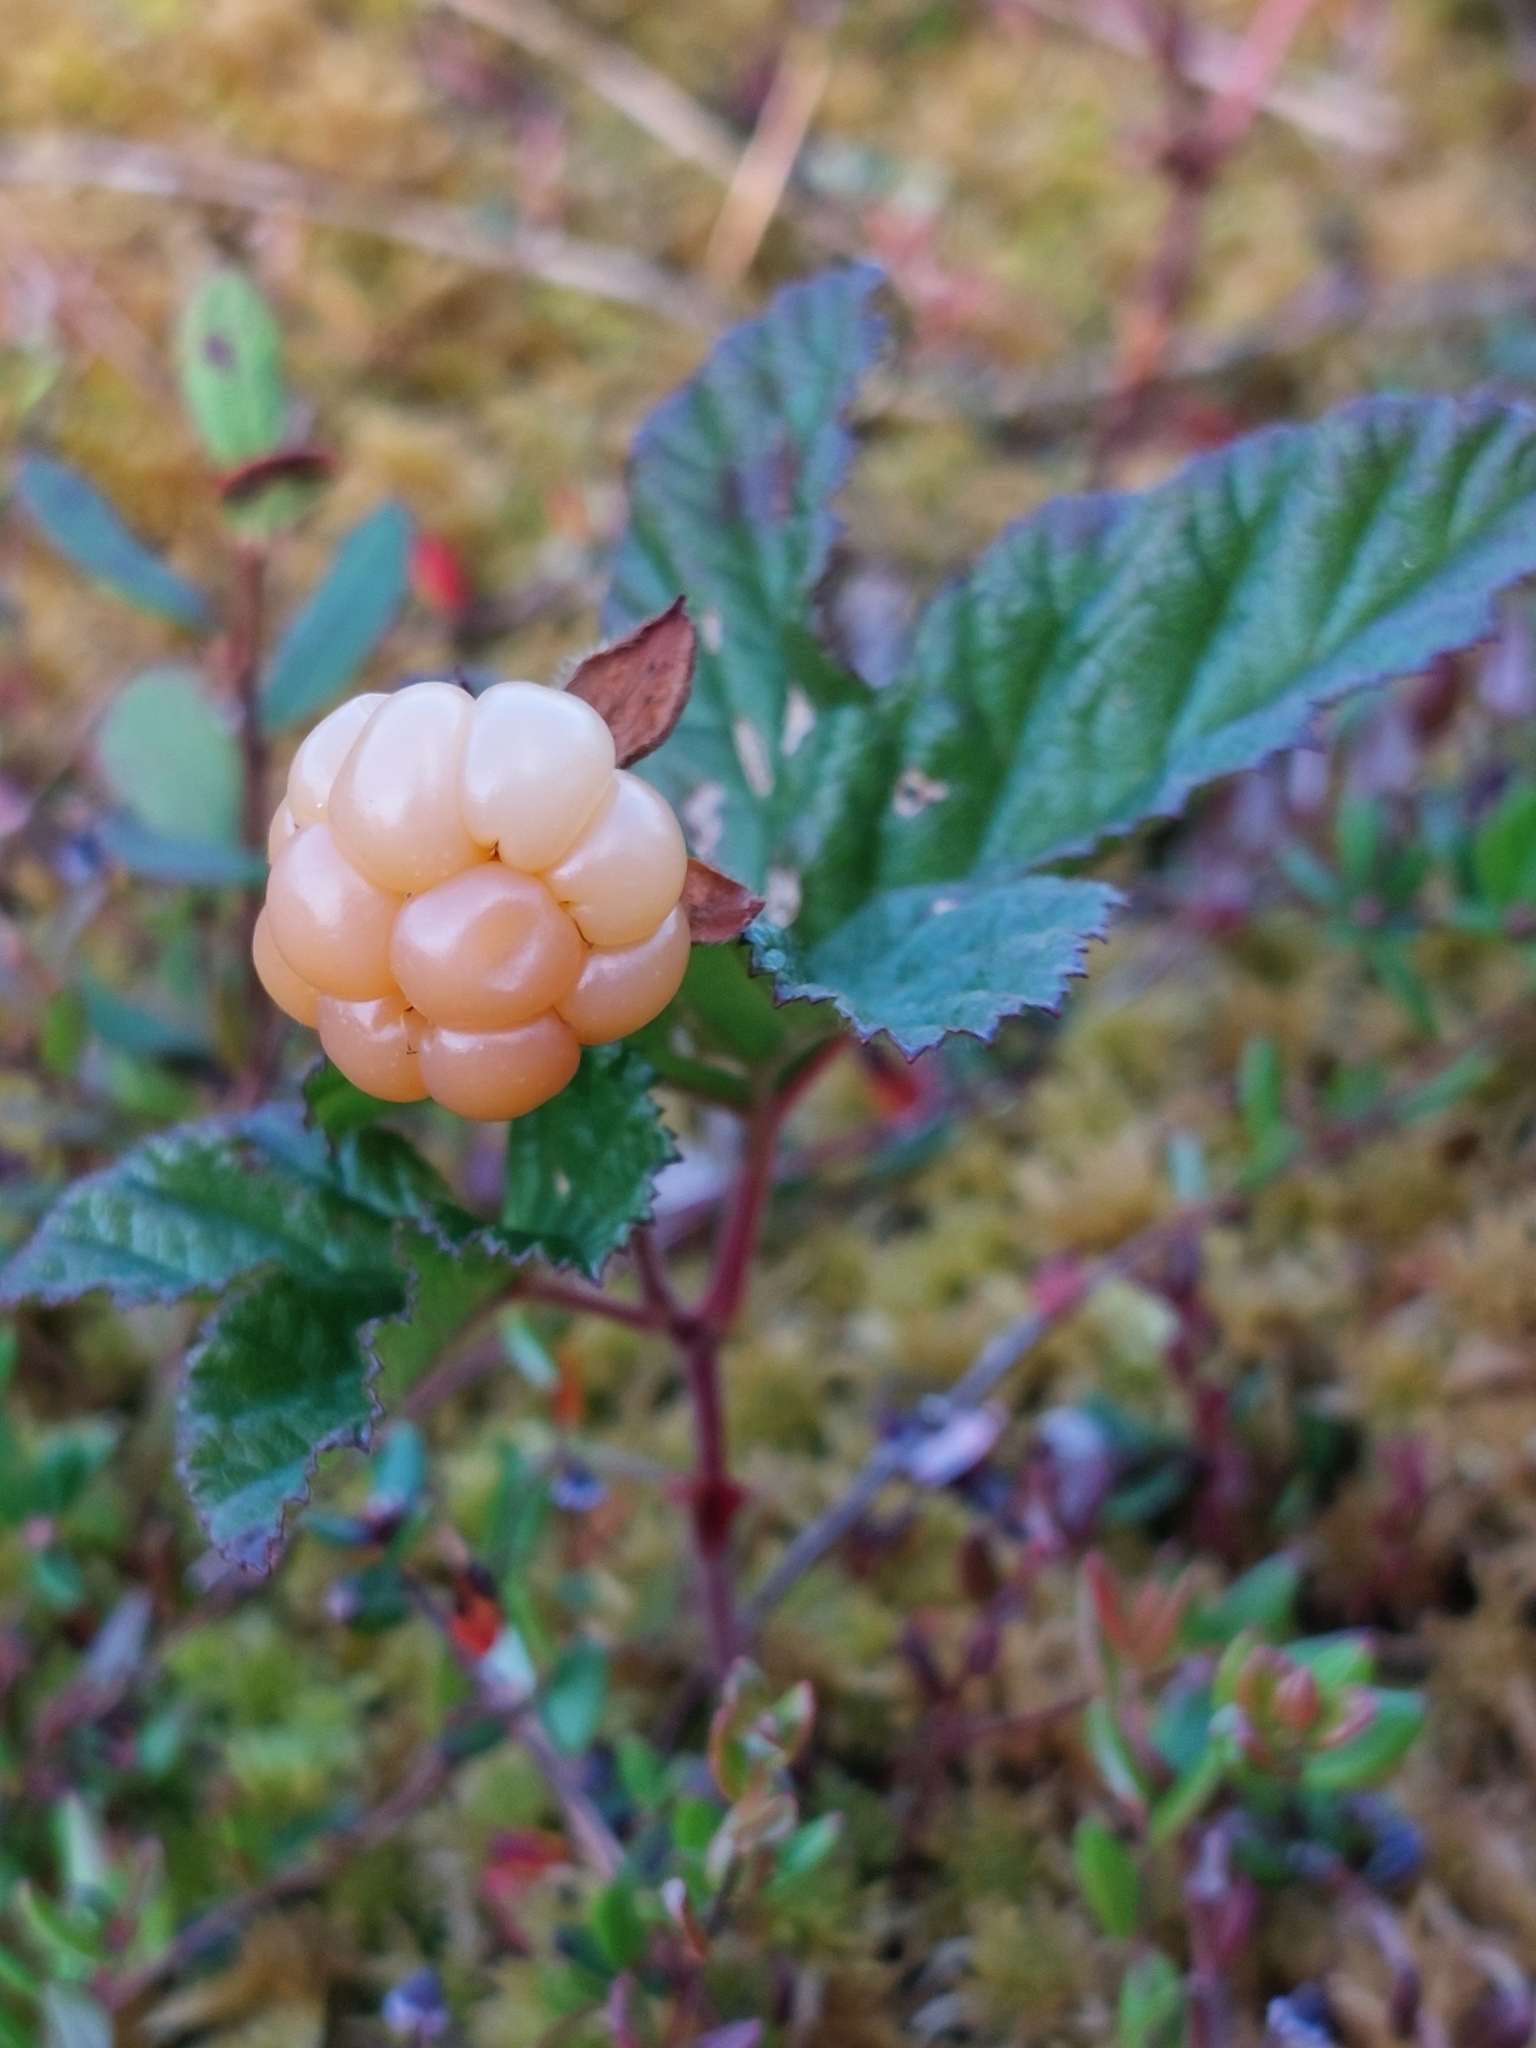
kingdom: Plantae
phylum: Tracheophyta
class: Magnoliopsida
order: Rosales
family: Rosaceae
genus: Rubus
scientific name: Rubus chamaemorus
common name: Cloudberry
